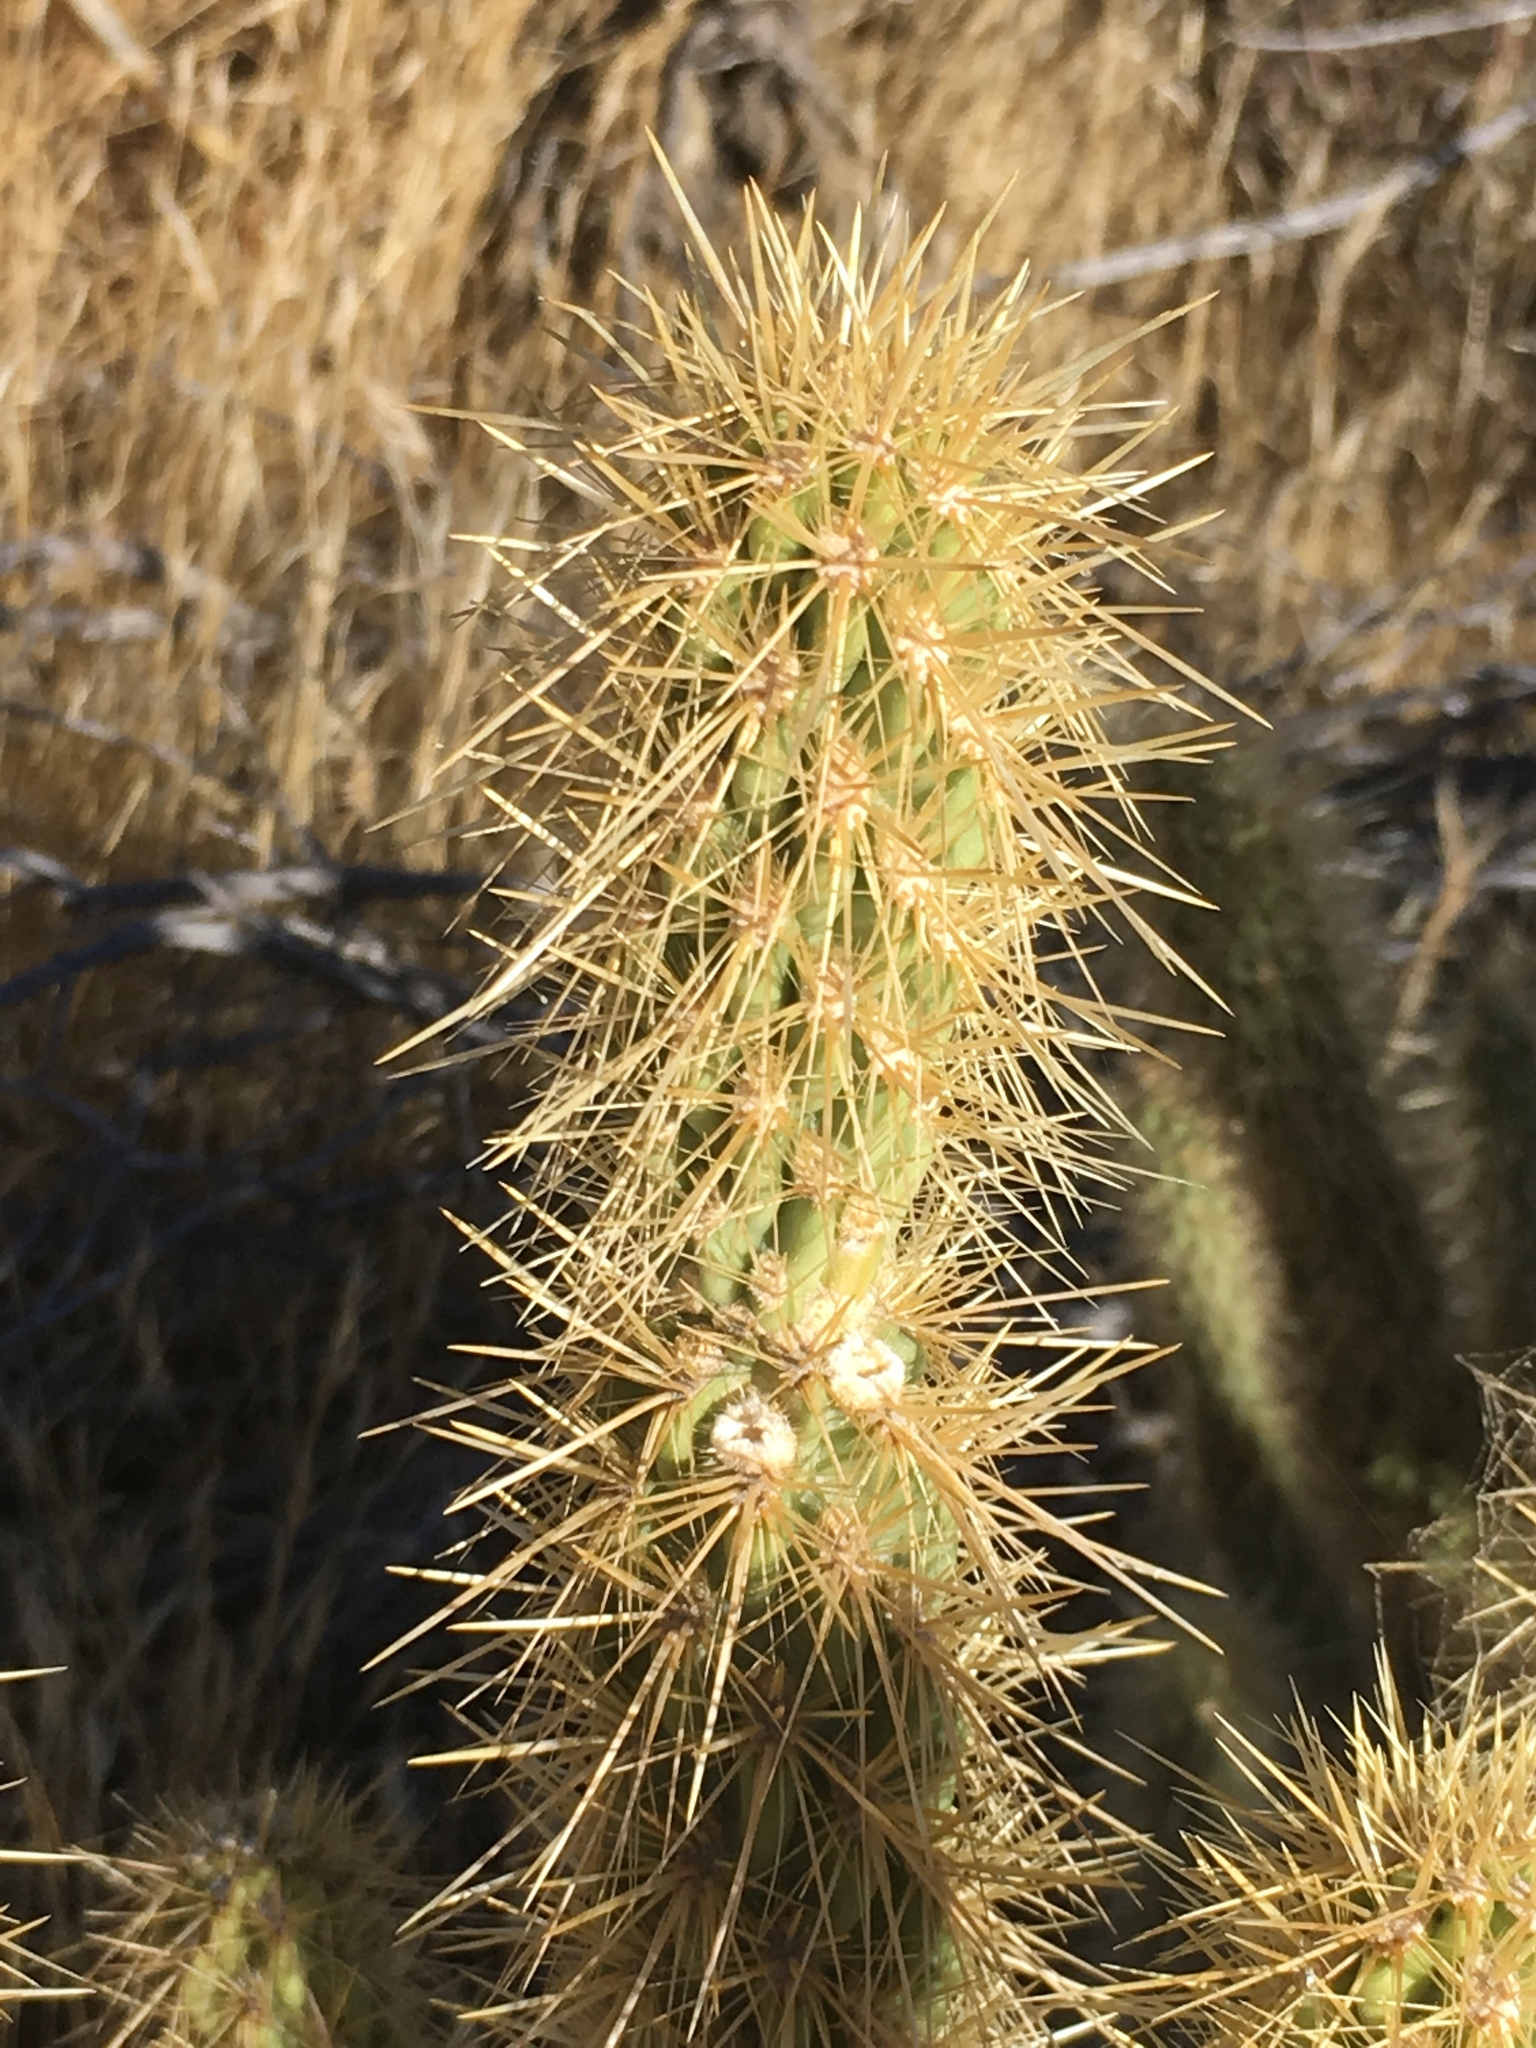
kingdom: Plantae
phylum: Tracheophyta
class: Magnoliopsida
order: Caryophyllales
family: Cactaceae
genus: Cylindropuntia
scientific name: Cylindropuntia ganderi
